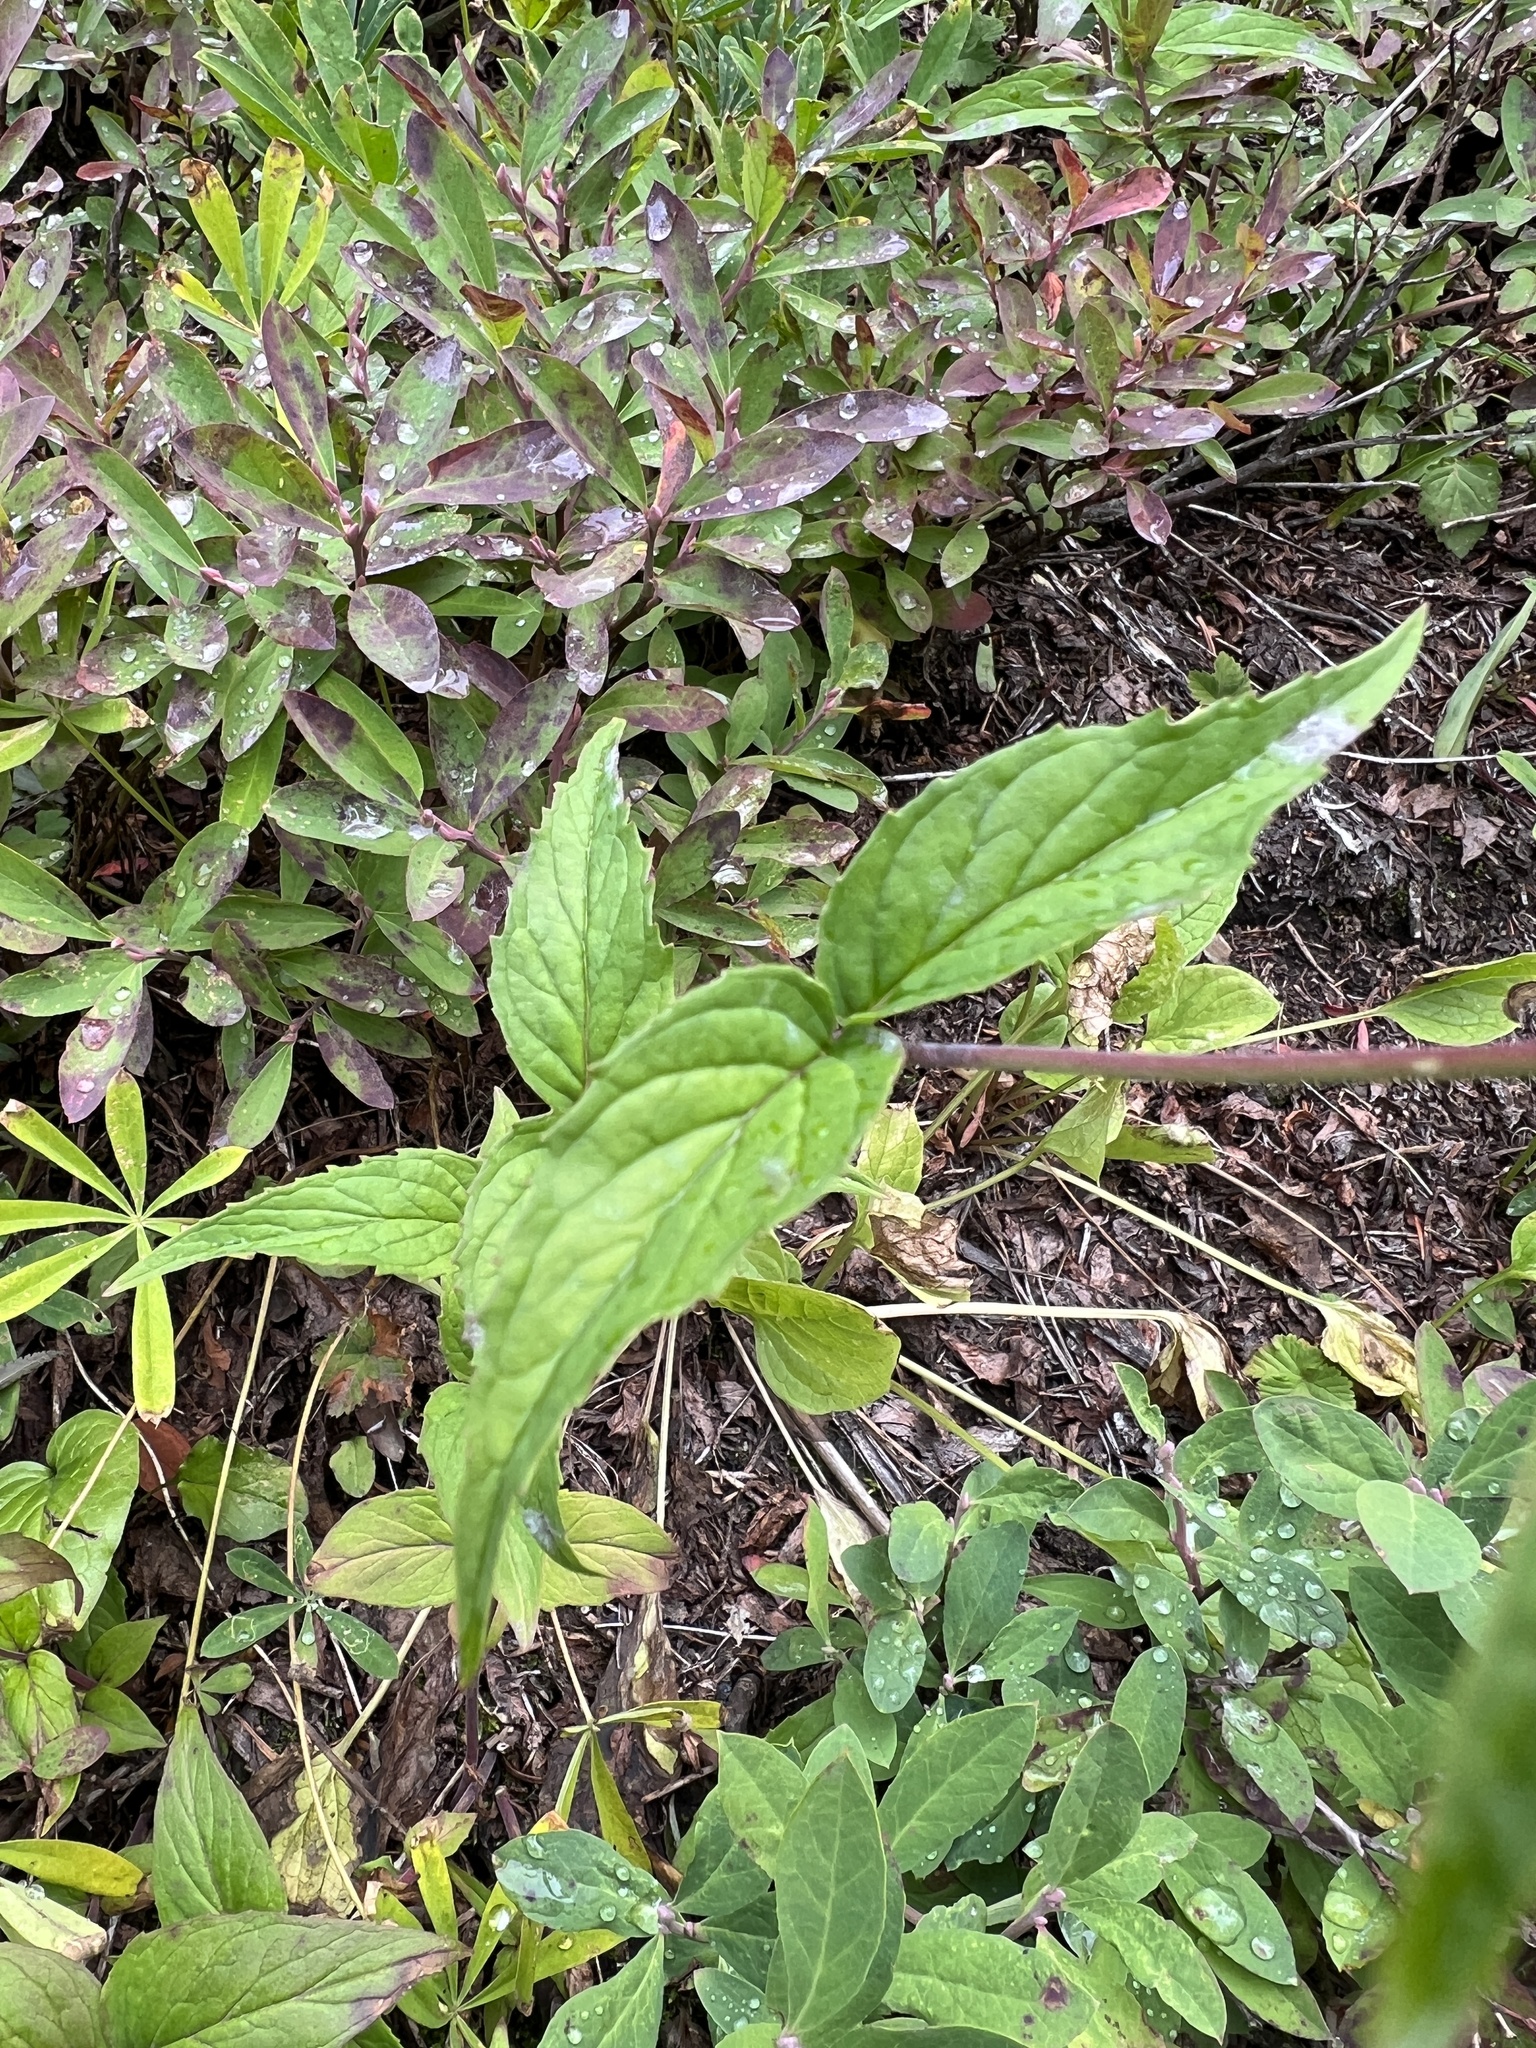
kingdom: Plantae
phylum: Tracheophyta
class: Magnoliopsida
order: Lamiales
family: Plantaginaceae
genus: Nothochelone
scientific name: Nothochelone nemorosa
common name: Woodland beardtongue
